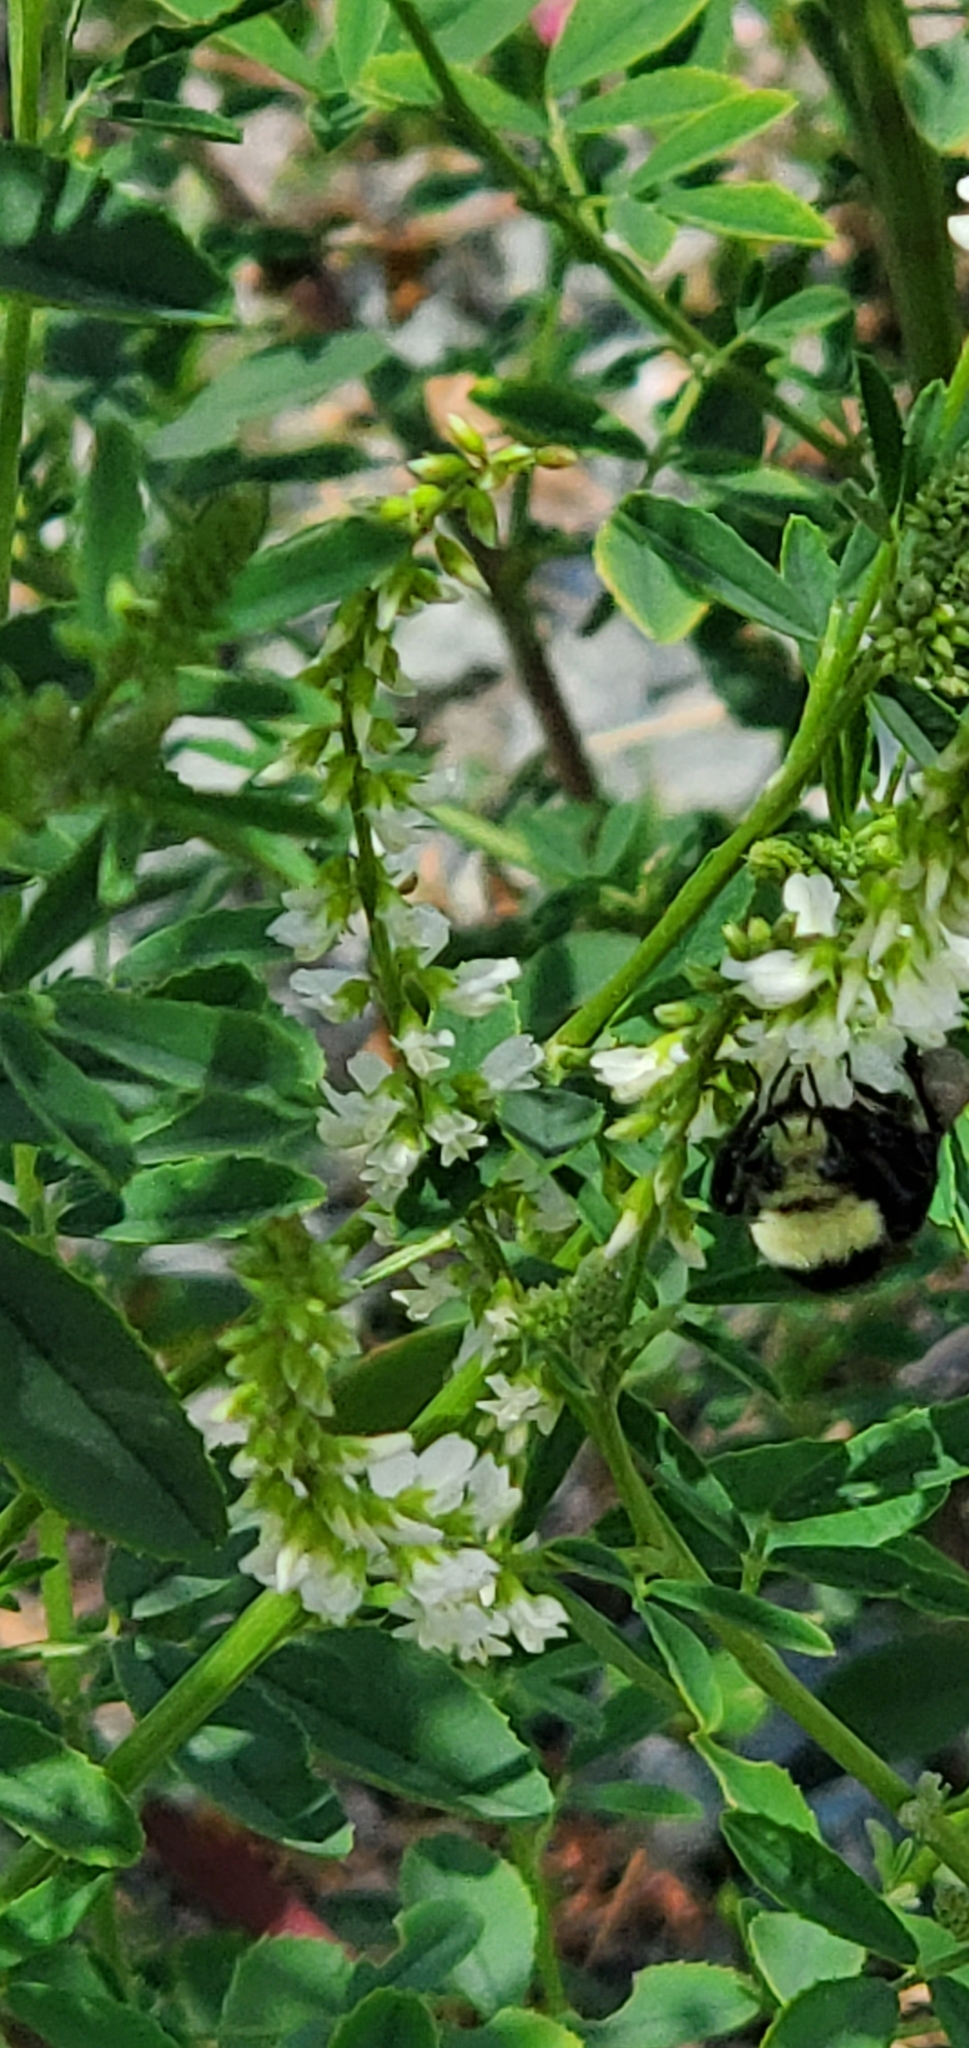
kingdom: Animalia
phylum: Arthropoda
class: Insecta
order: Hymenoptera
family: Apidae
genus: Bombus
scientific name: Bombus vosnesenskii
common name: Vosnesensky bumble bee
